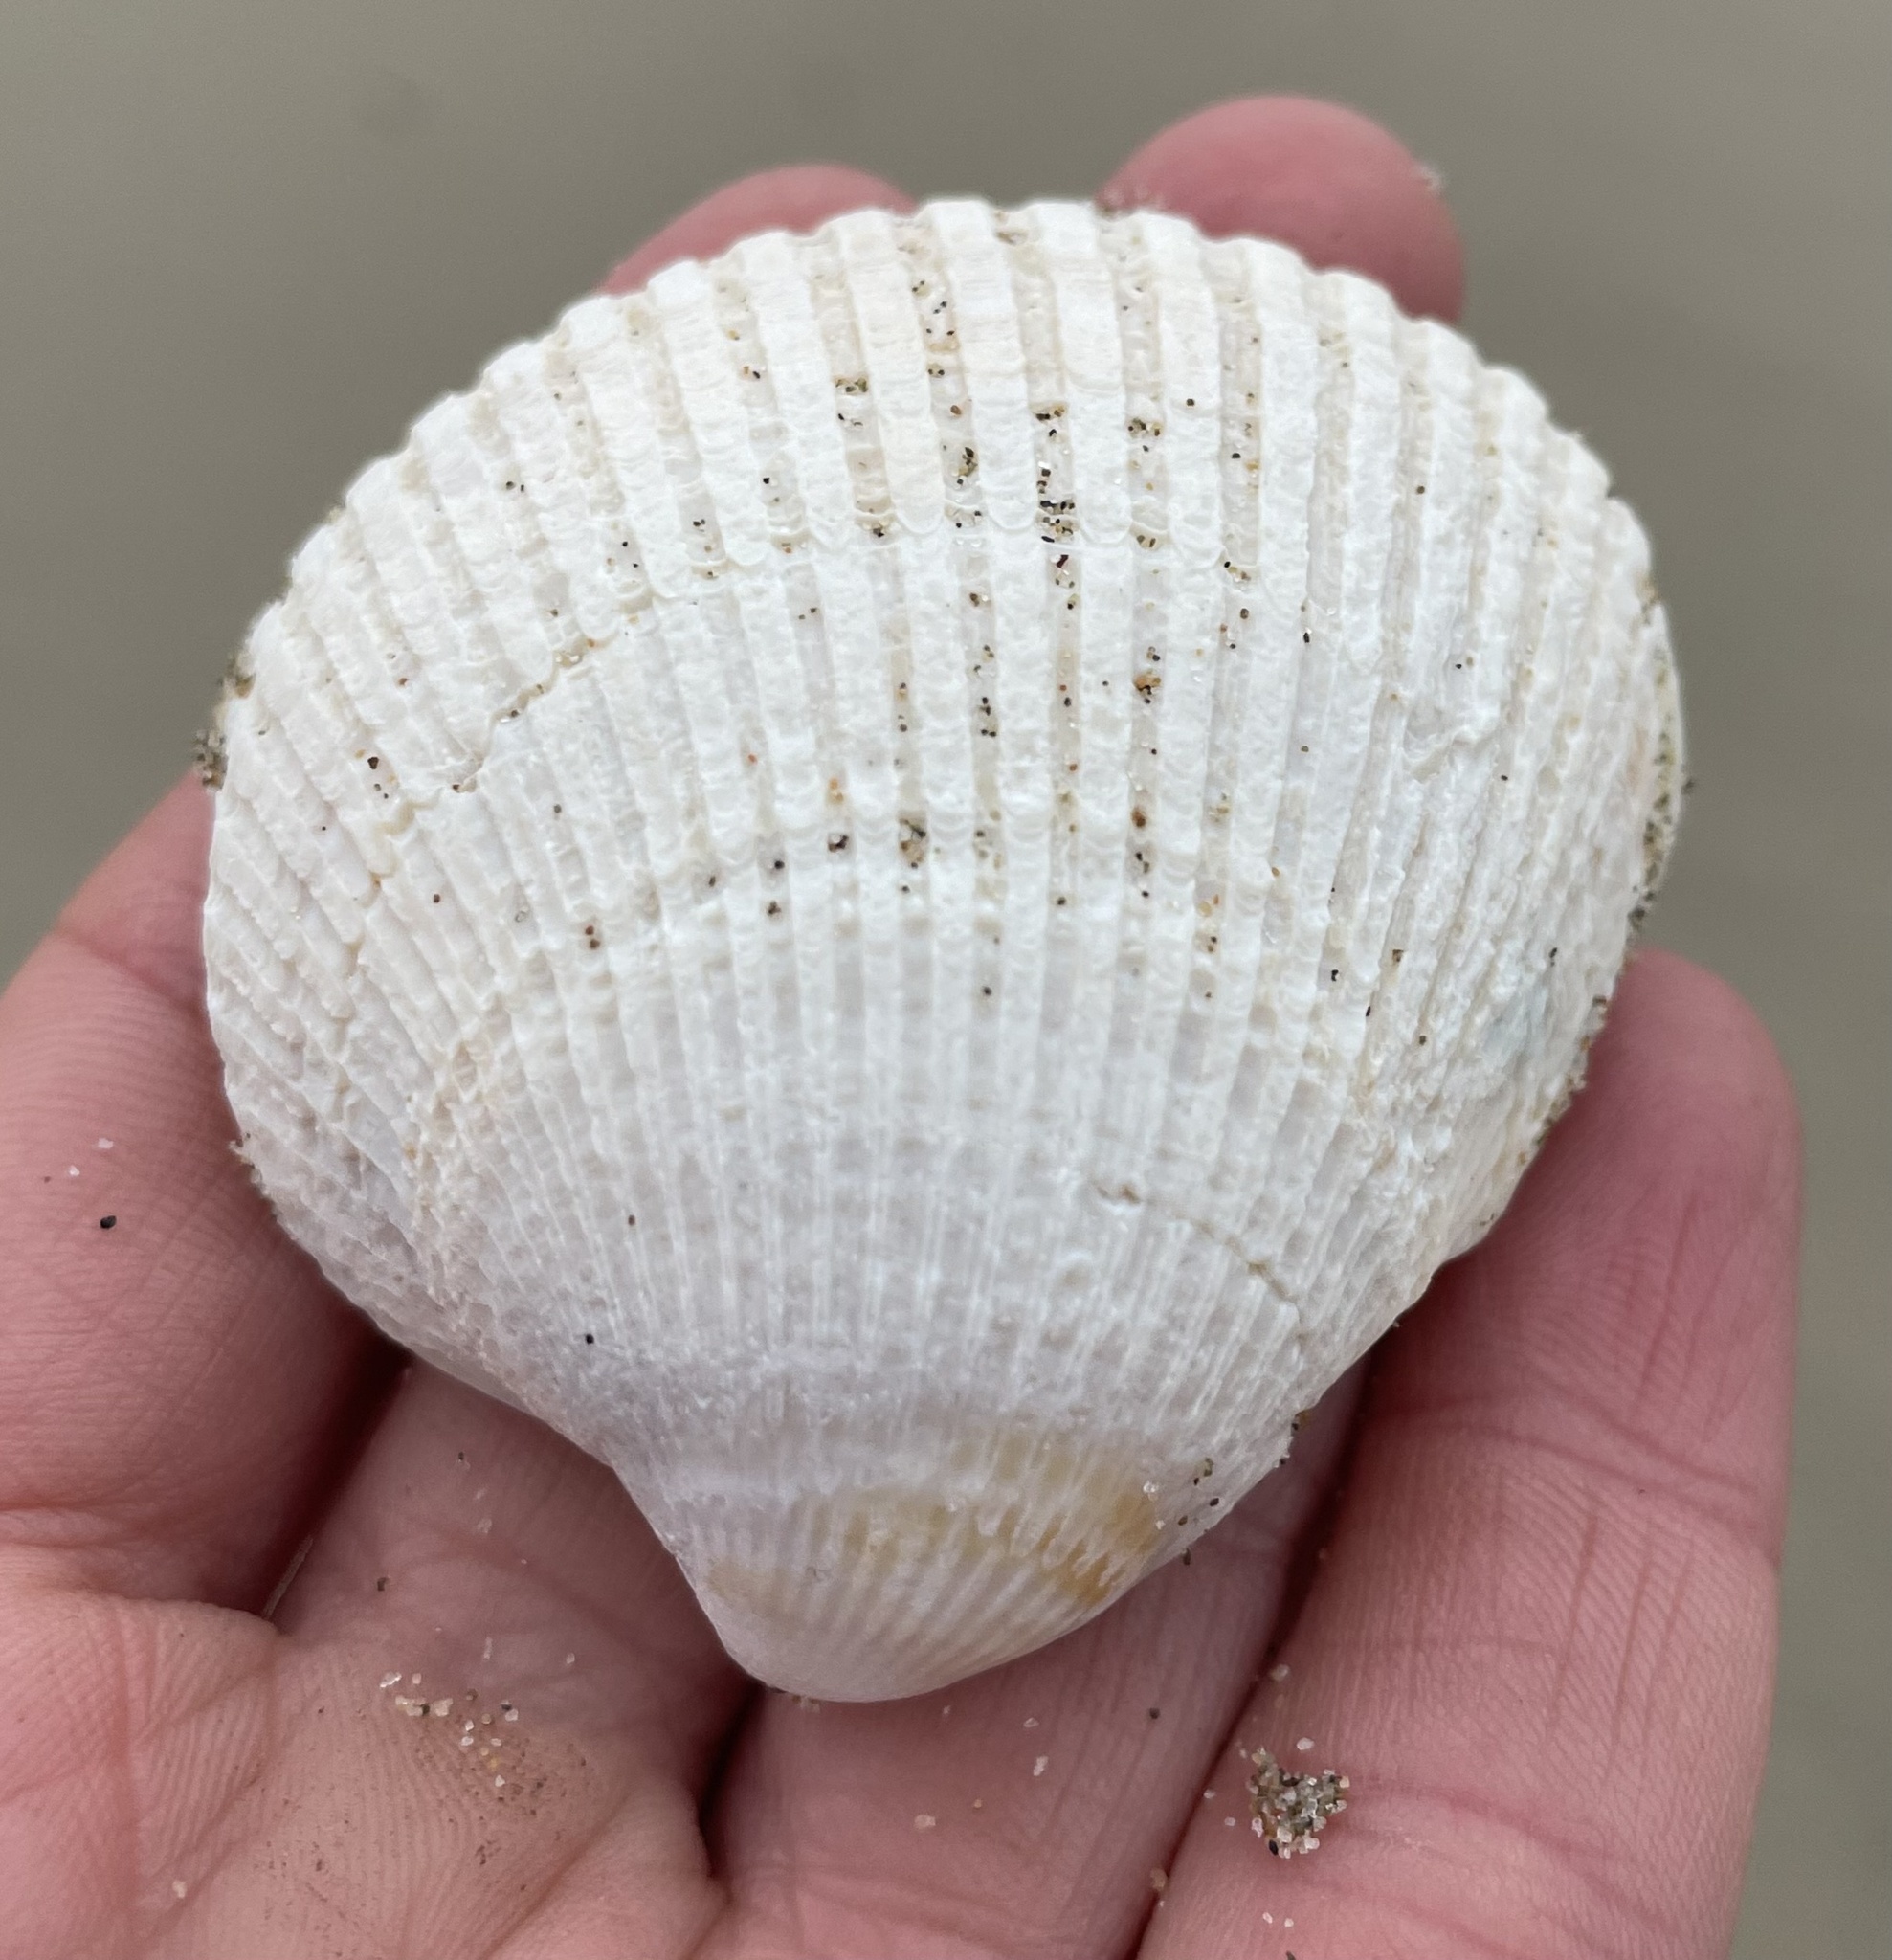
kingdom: Animalia
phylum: Mollusca
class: Bivalvia
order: Cardiida
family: Cardiidae
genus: Clinocardium
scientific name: Clinocardium nuttallii
